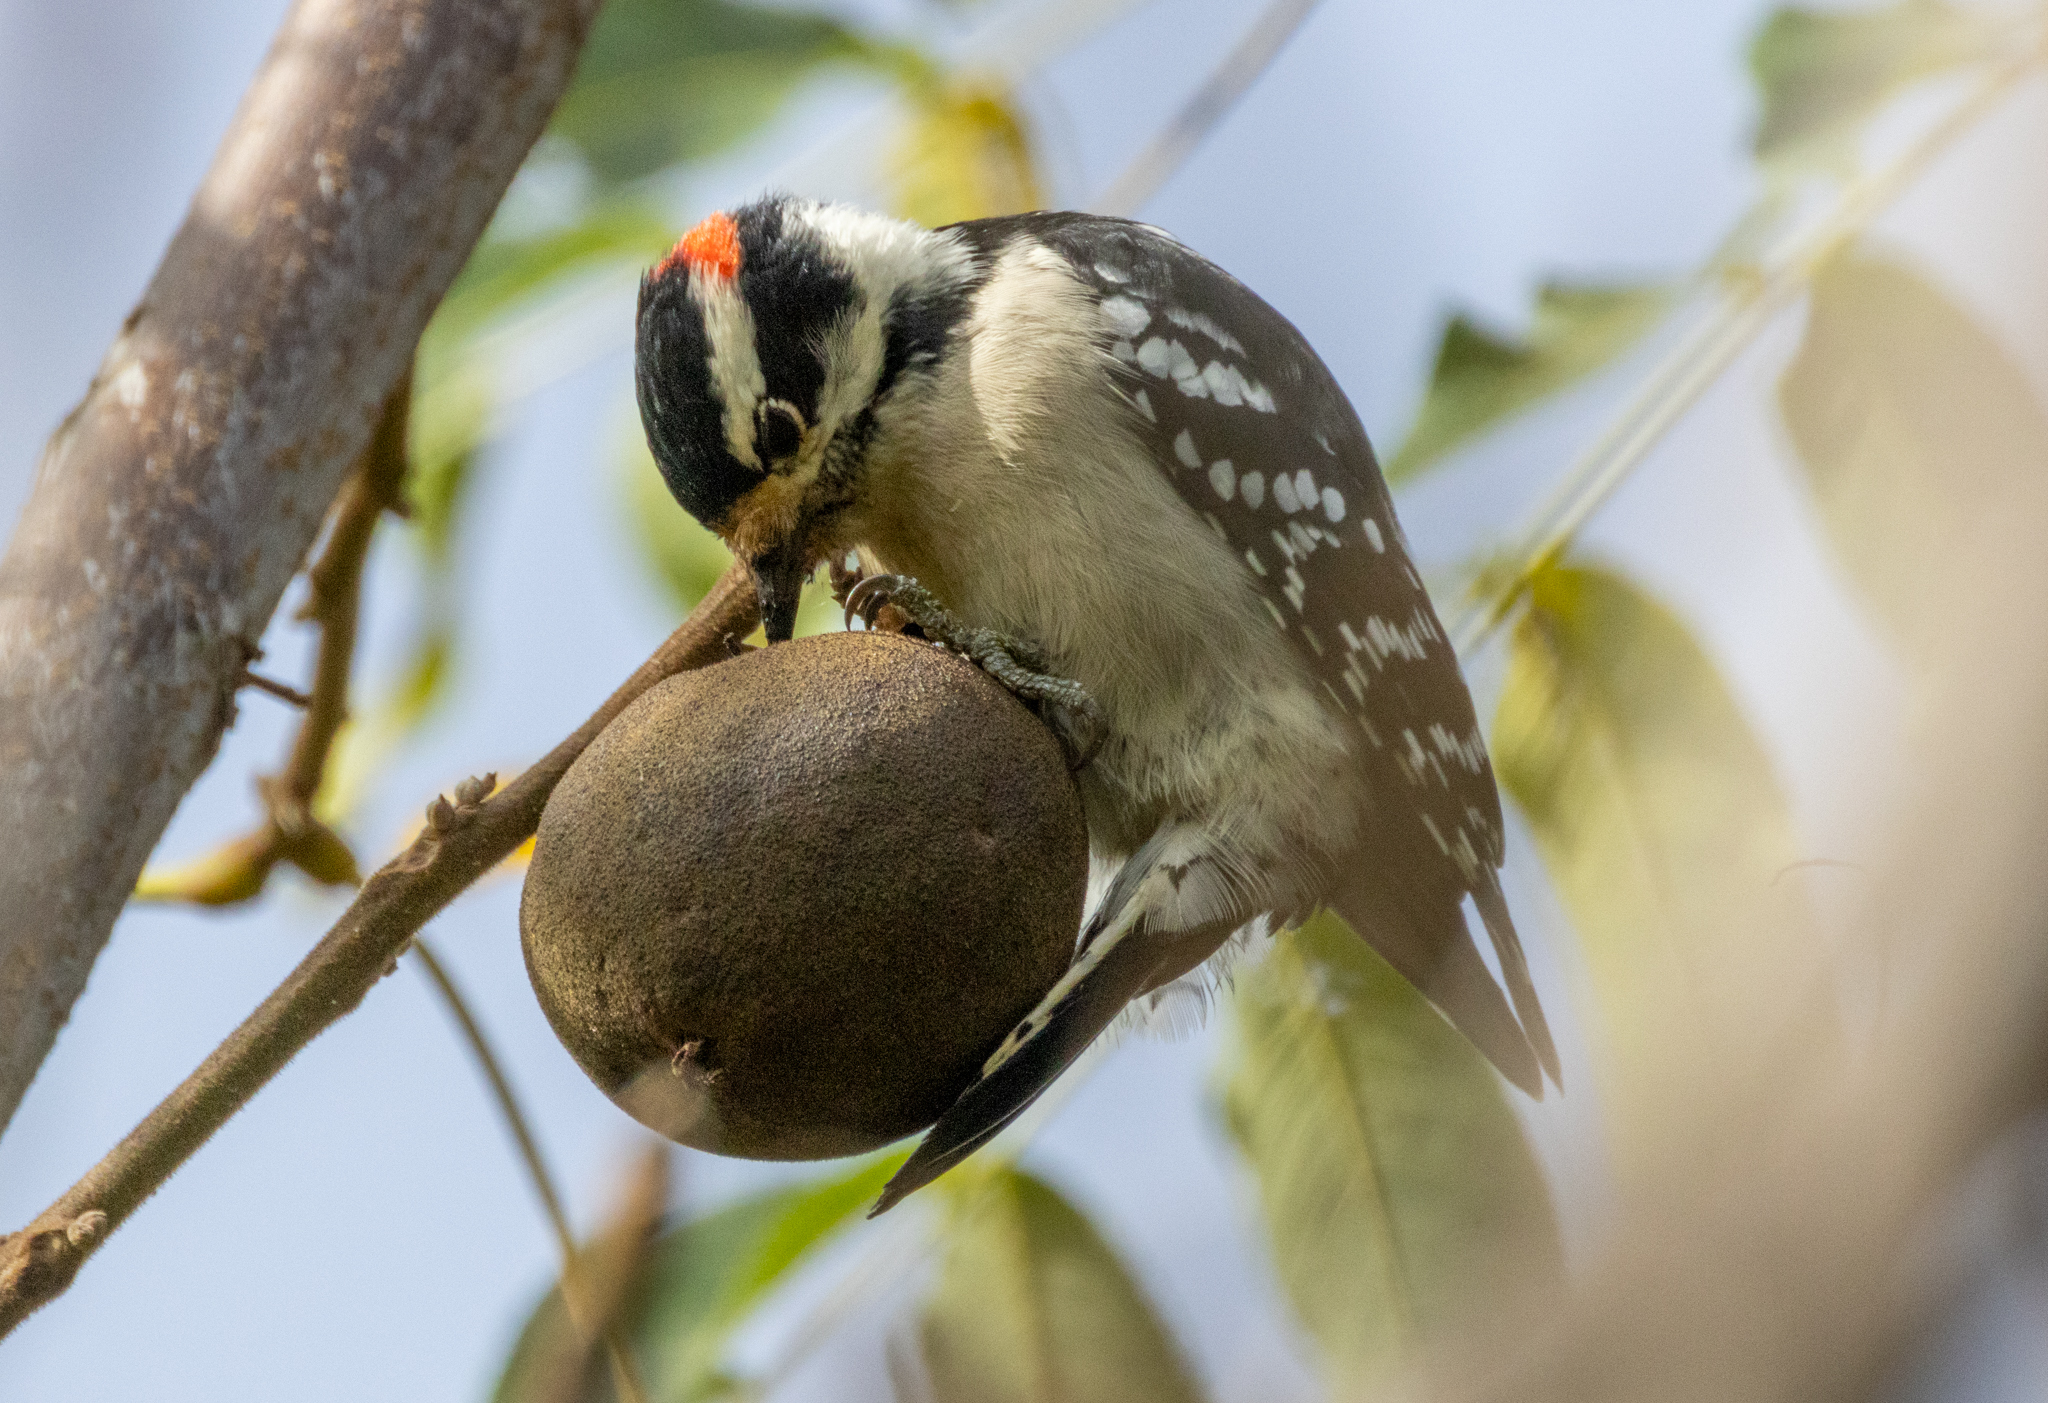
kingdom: Animalia
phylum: Chordata
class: Aves
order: Piciformes
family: Picidae
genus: Dryobates
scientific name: Dryobates pubescens
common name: Downy woodpecker
